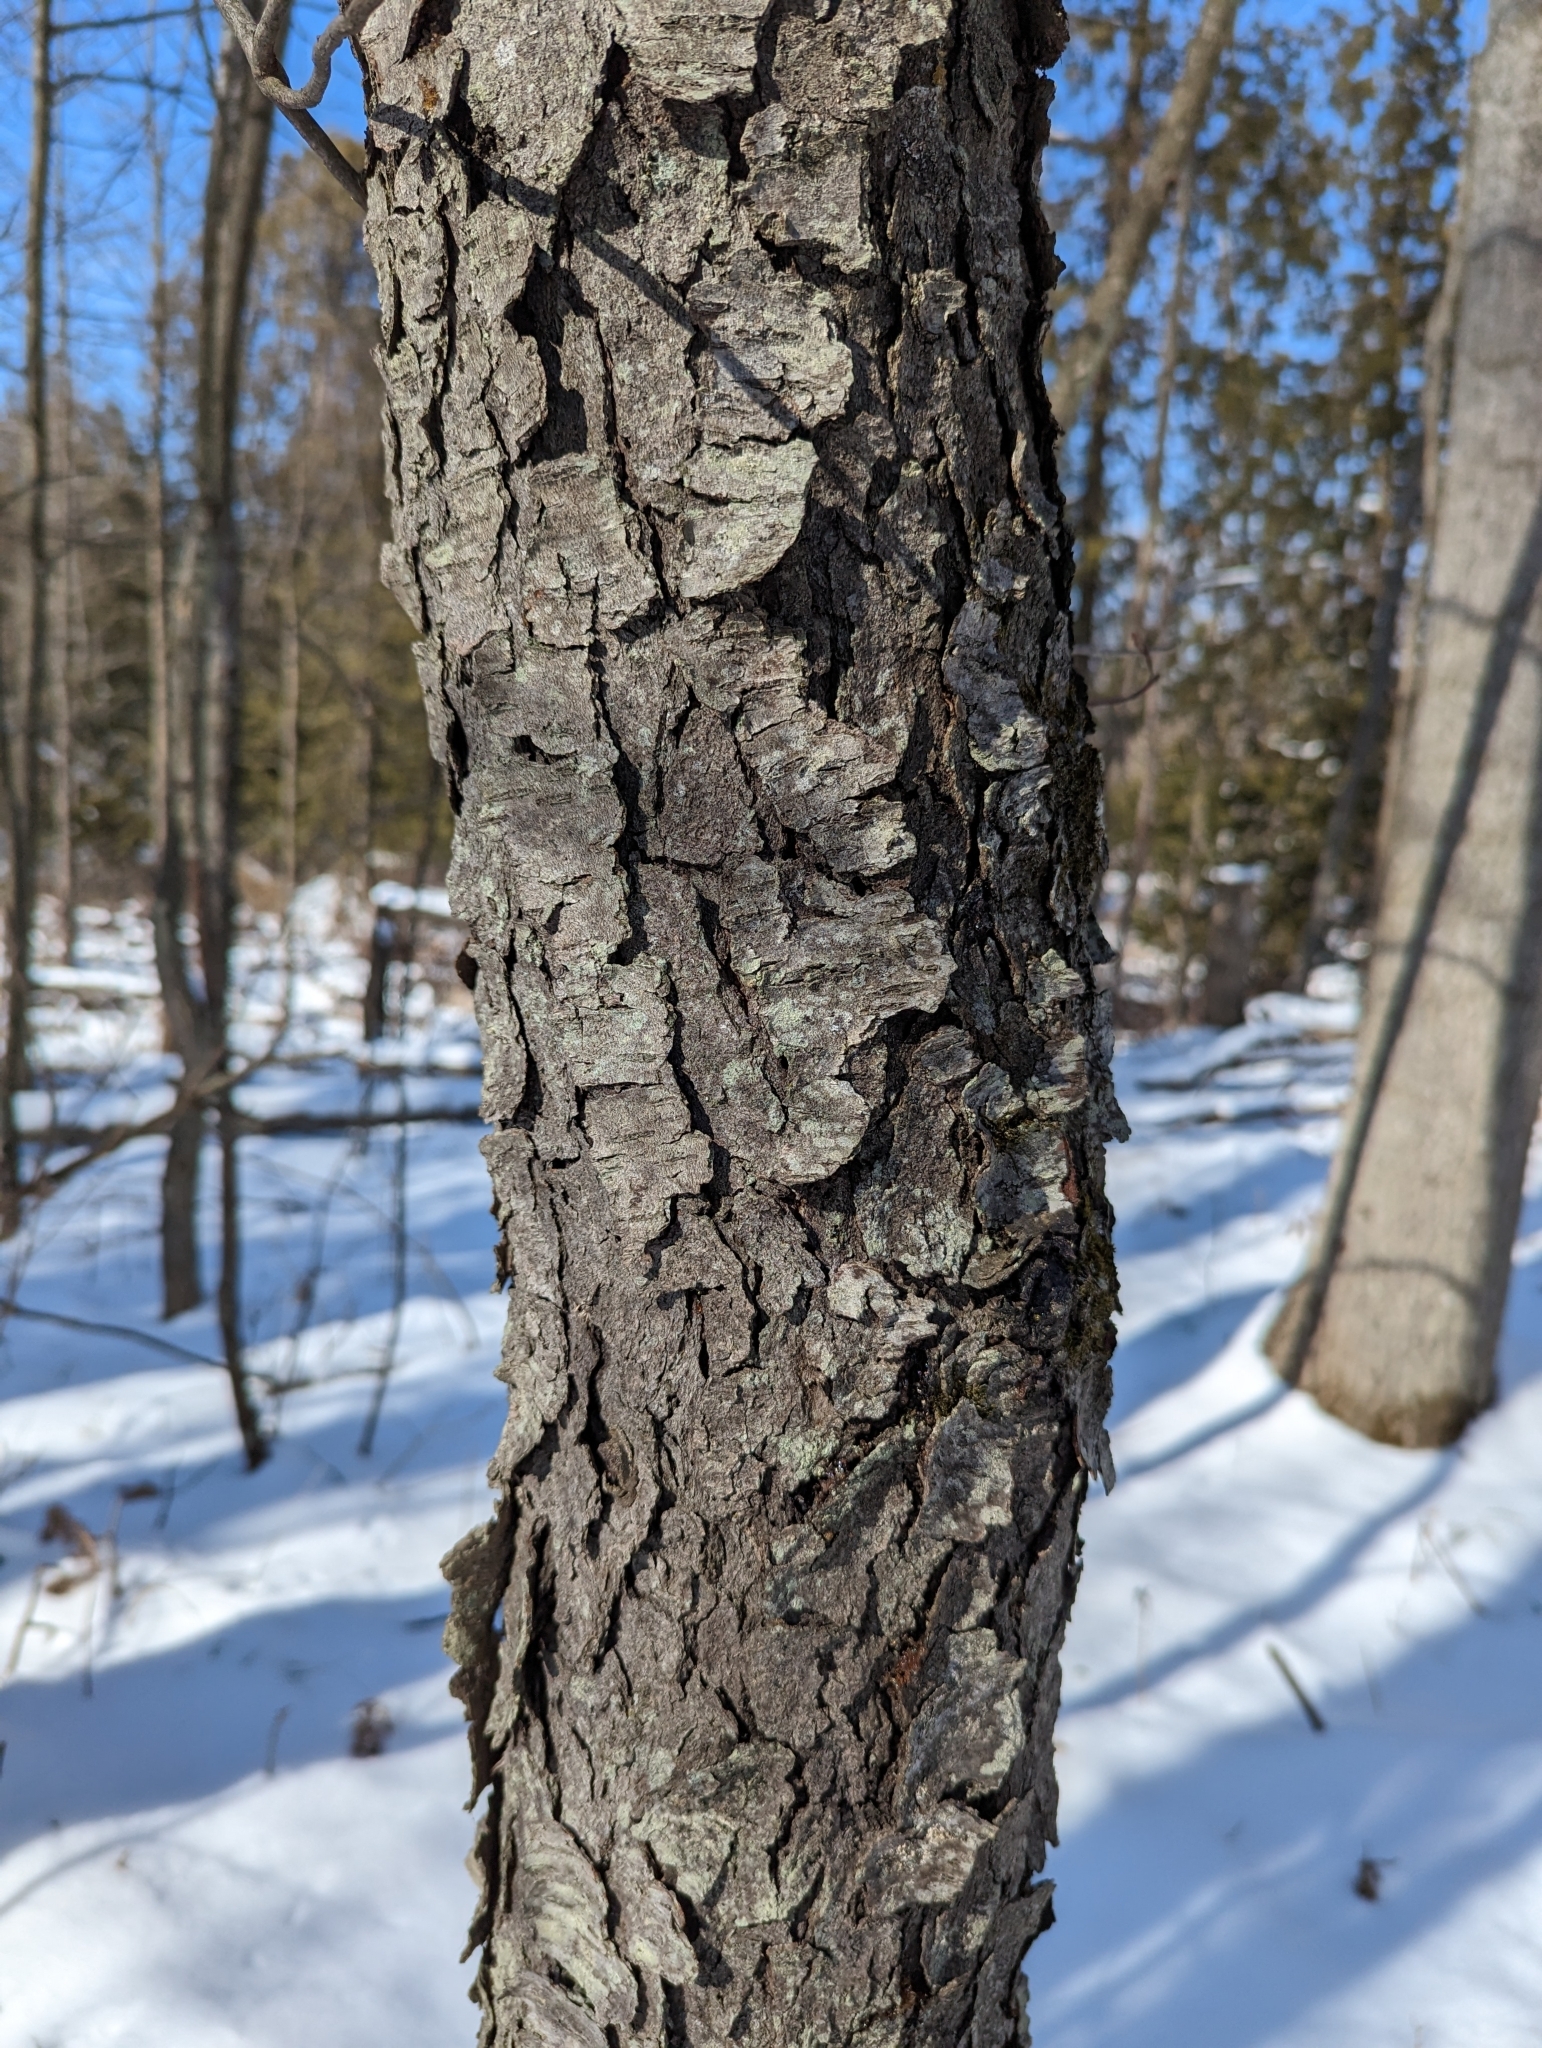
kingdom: Plantae
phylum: Tracheophyta
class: Magnoliopsida
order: Rosales
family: Rosaceae
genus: Prunus
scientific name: Prunus serotina
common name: Black cherry
